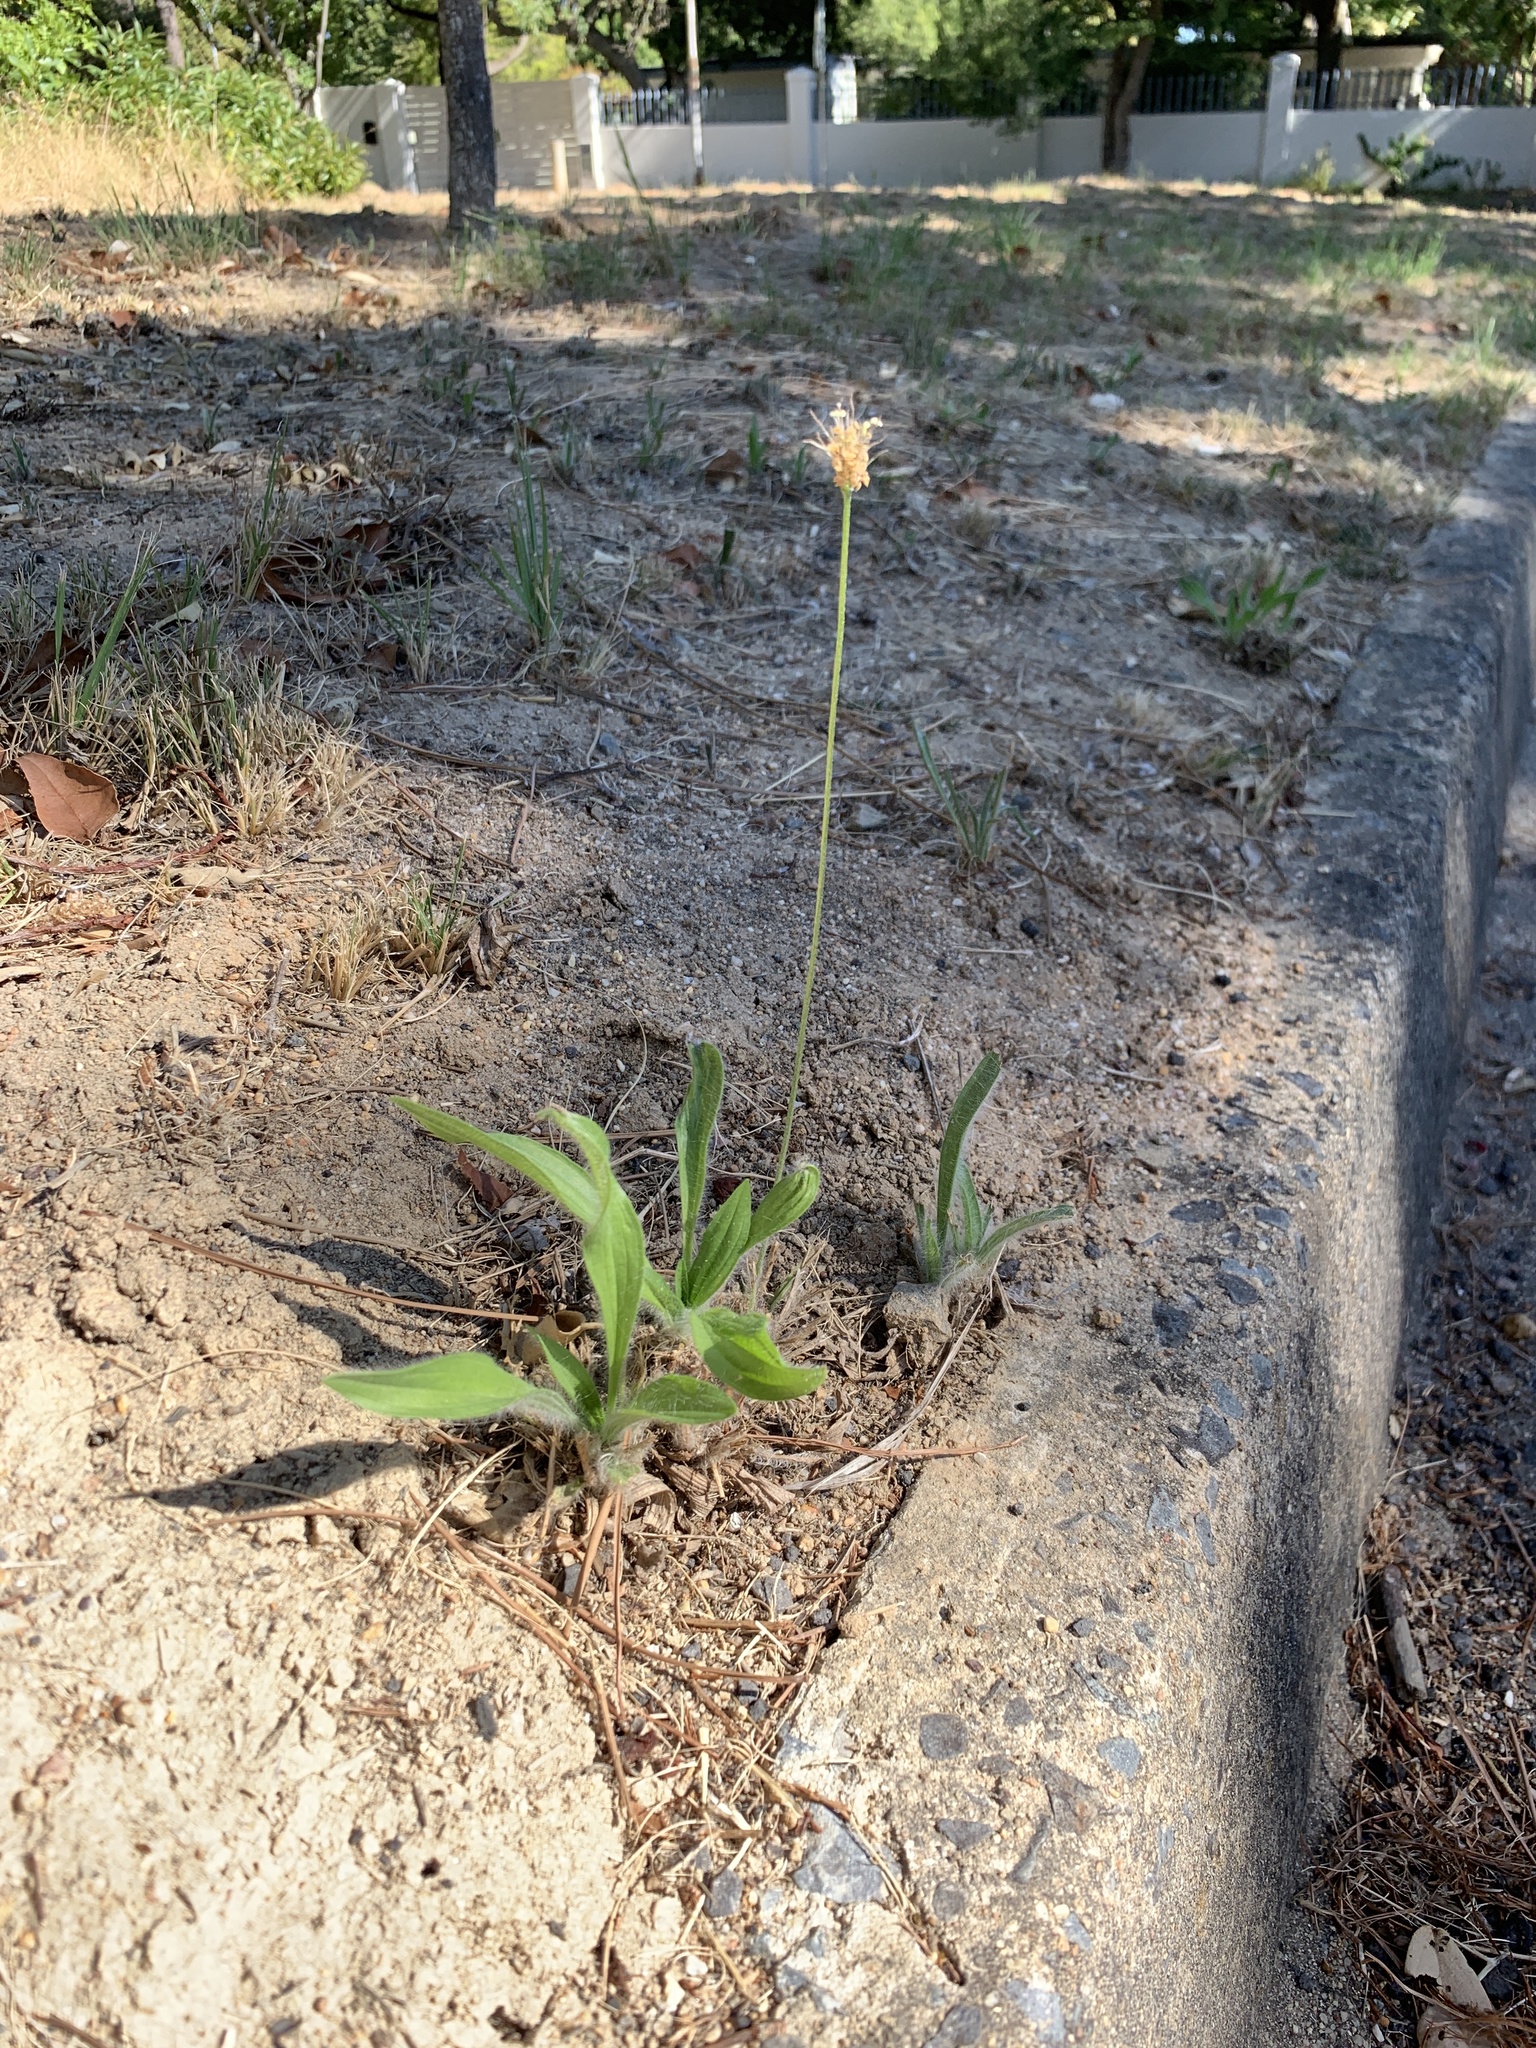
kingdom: Plantae
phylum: Tracheophyta
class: Magnoliopsida
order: Lamiales
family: Plantaginaceae
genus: Plantago
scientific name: Plantago lanceolata
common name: Ribwort plantain
